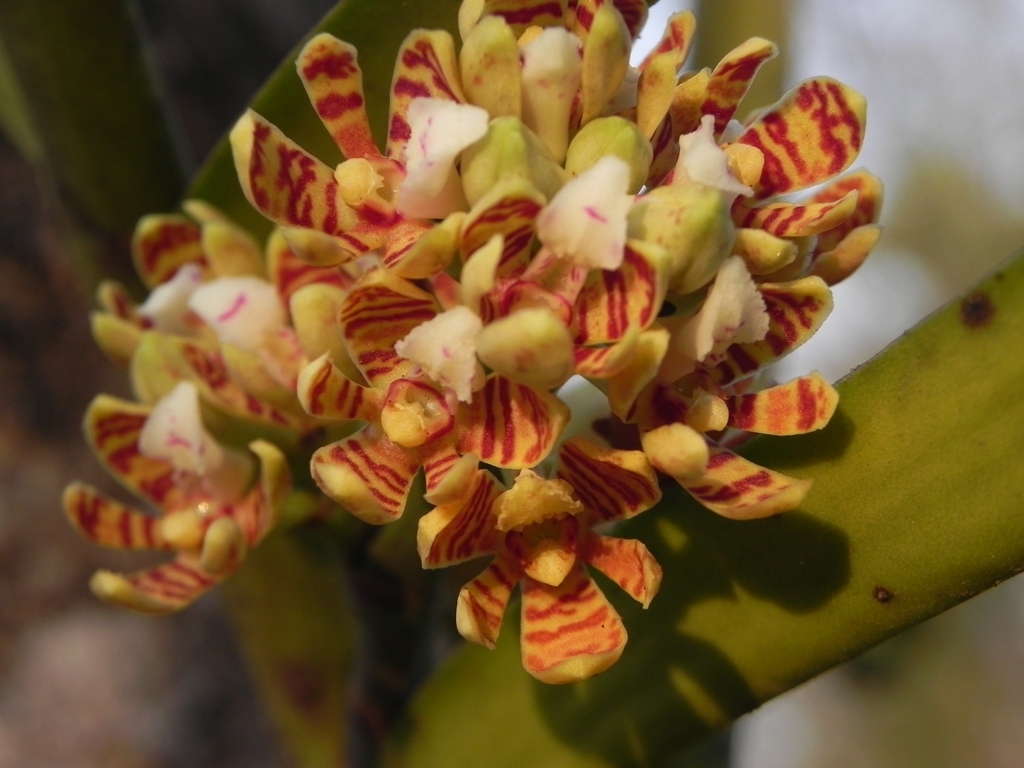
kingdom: Plantae
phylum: Tracheophyta
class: Liliopsida
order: Asparagales
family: Orchidaceae
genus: Acampe
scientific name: Acampe praemorsa
